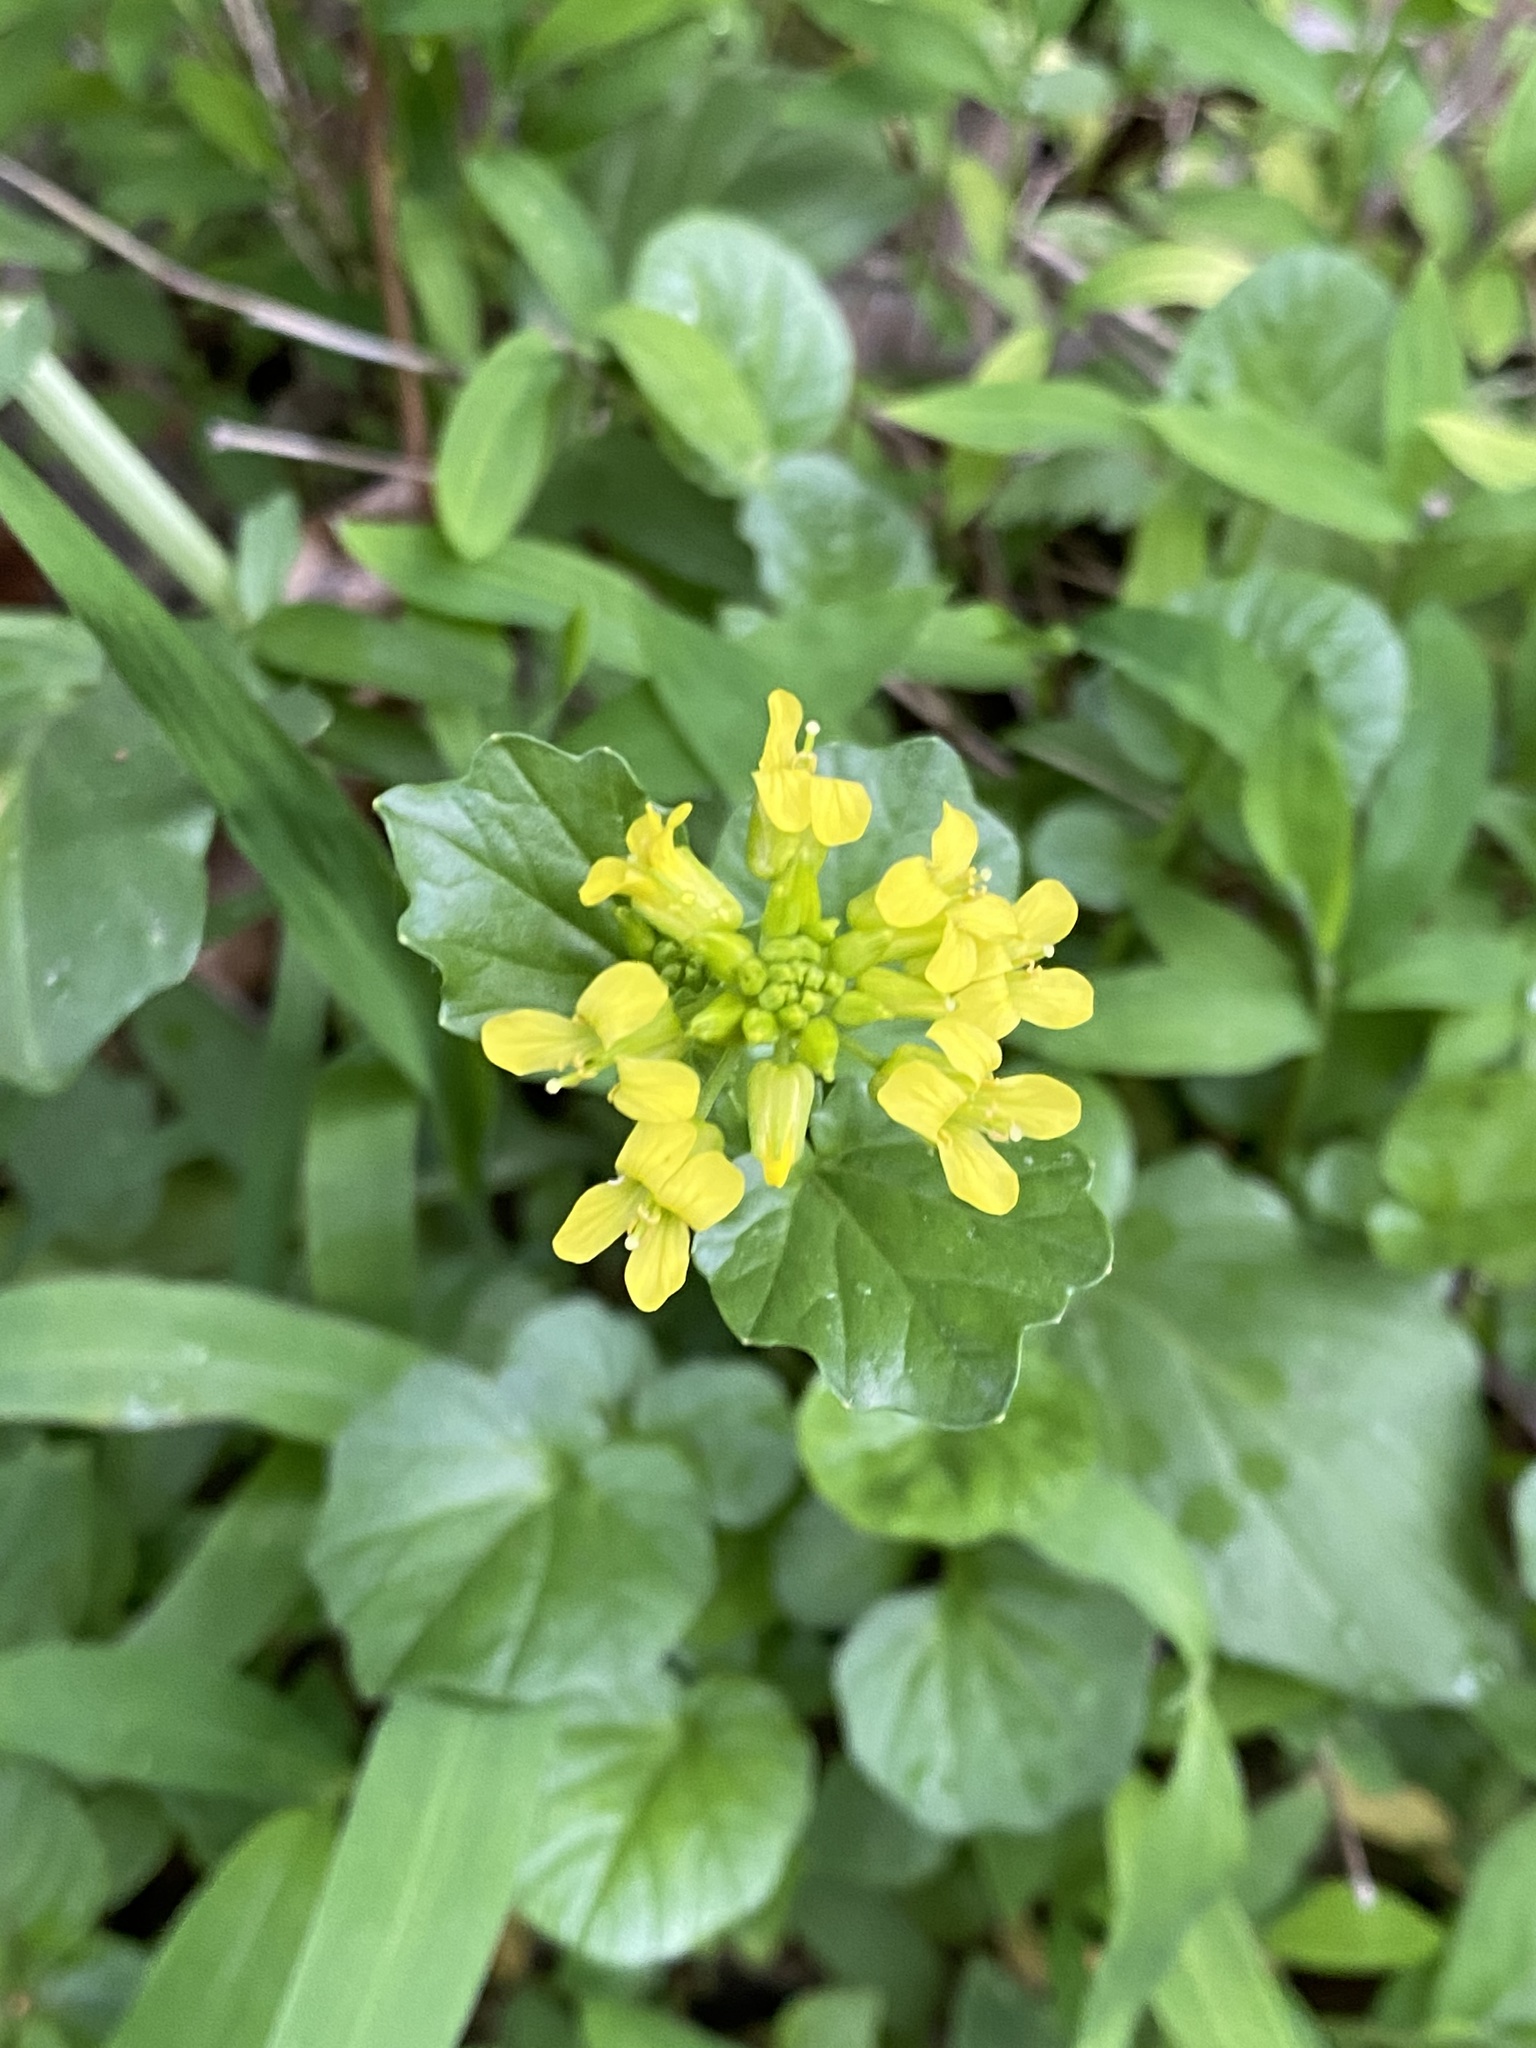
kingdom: Plantae
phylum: Tracheophyta
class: Magnoliopsida
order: Brassicales
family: Brassicaceae
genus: Barbarea
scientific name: Barbarea vulgaris
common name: Cressy-greens
